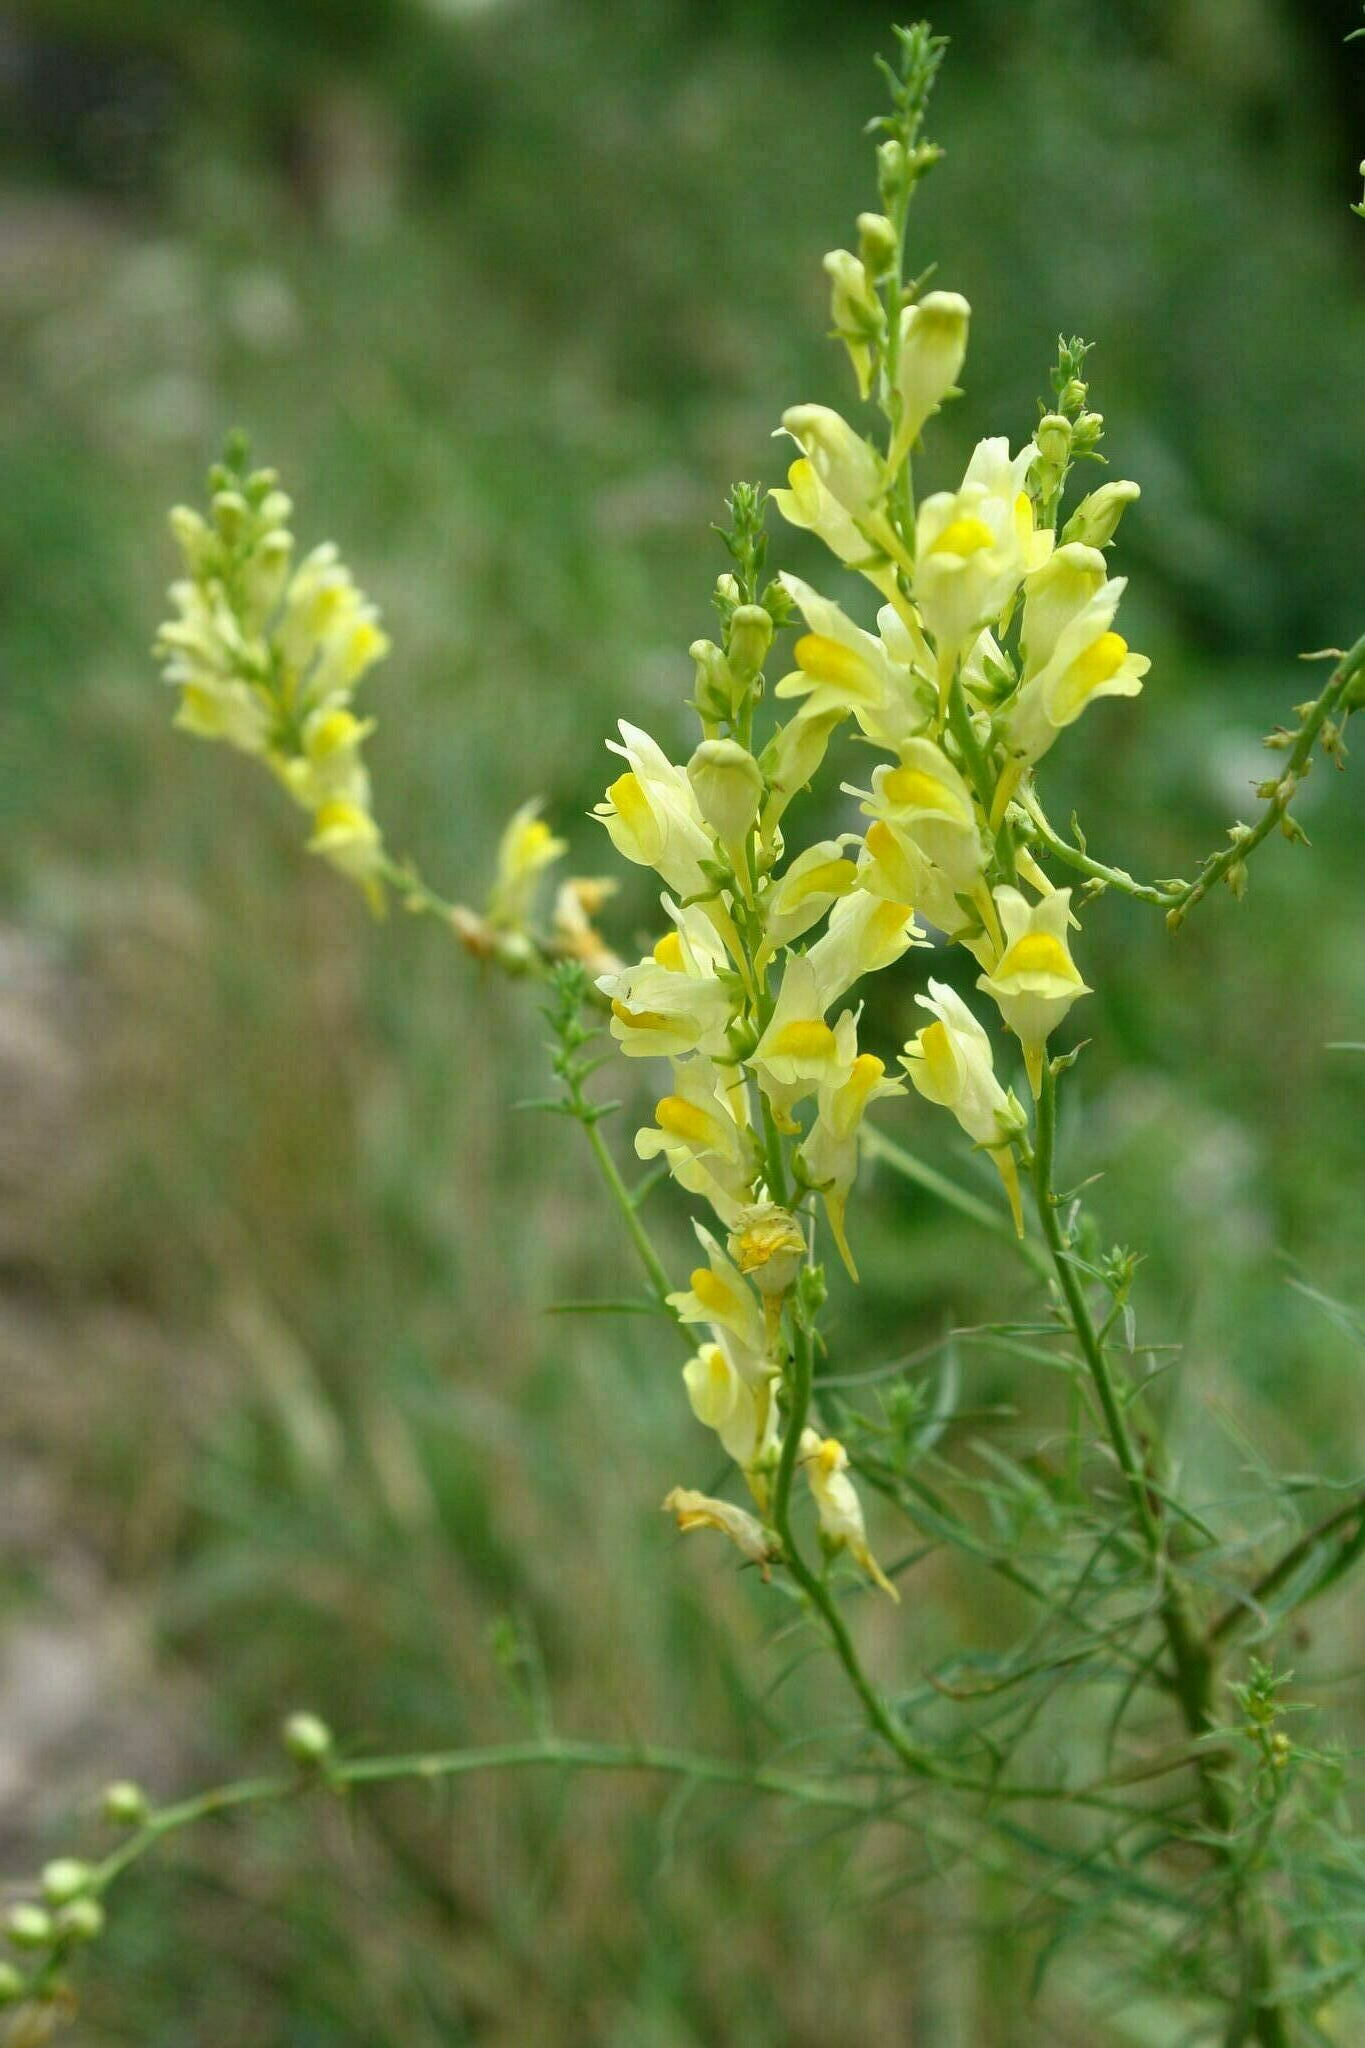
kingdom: Plantae
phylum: Tracheophyta
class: Magnoliopsida
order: Lamiales
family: Plantaginaceae
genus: Linaria
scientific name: Linaria vulgaris
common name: Butter and eggs
